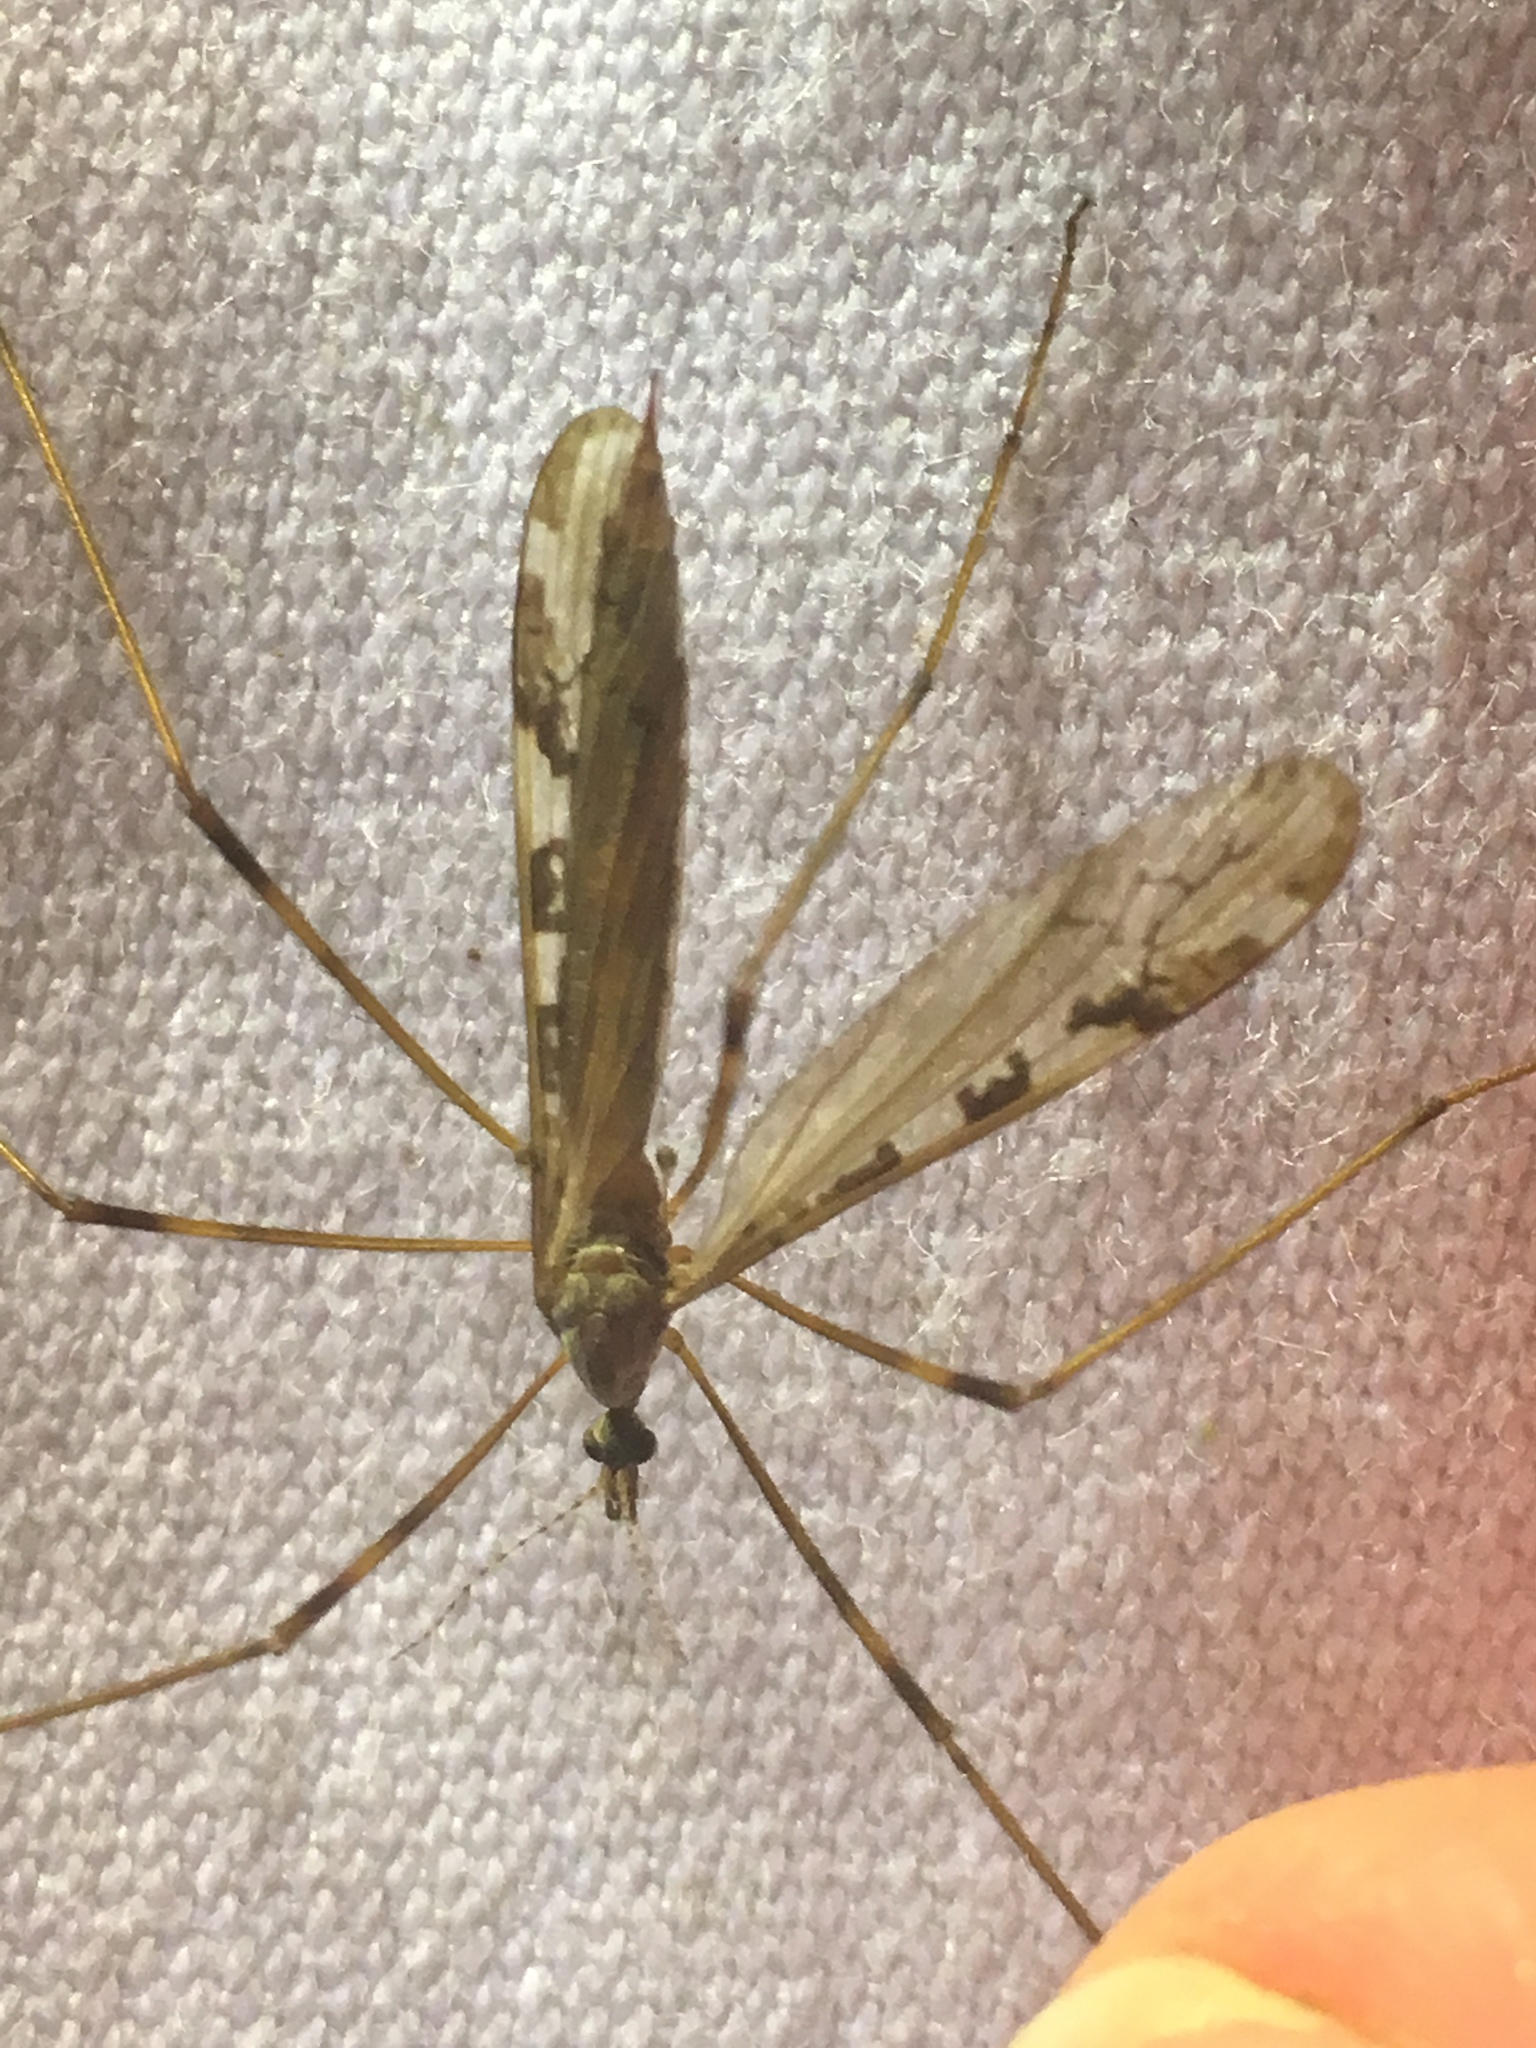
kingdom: Animalia
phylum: Arthropoda
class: Insecta
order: Diptera
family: Limoniidae
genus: Paralimnophila
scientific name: Paralimnophila skusei
